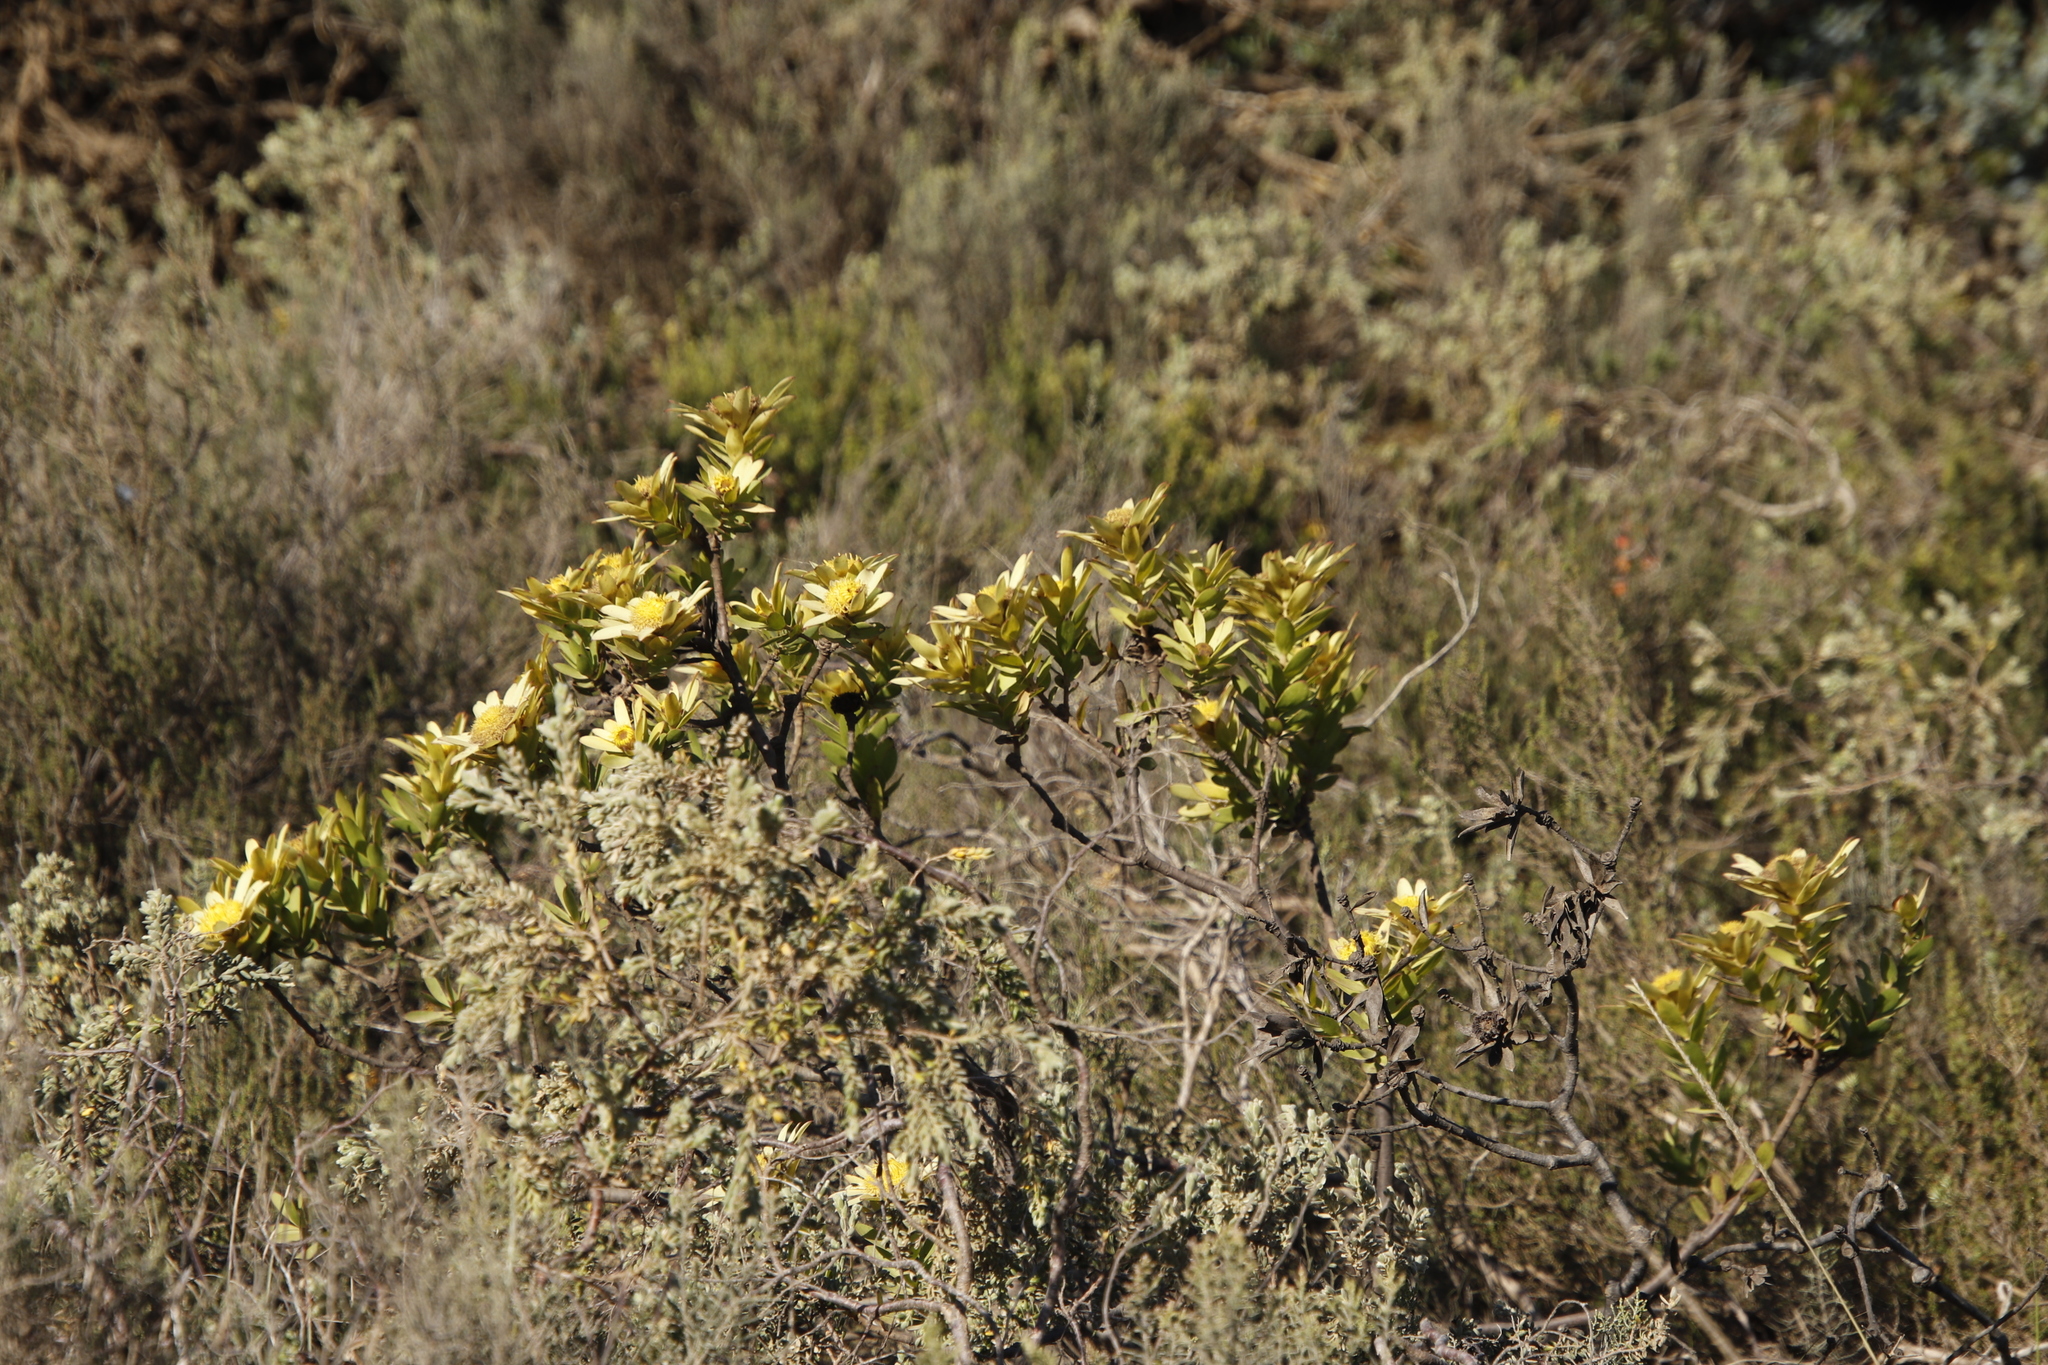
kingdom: Plantae
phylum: Tracheophyta
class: Magnoliopsida
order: Proteales
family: Proteaceae
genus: Leucadendron
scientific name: Leucadendron stelligerum
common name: Agulhas conebush
